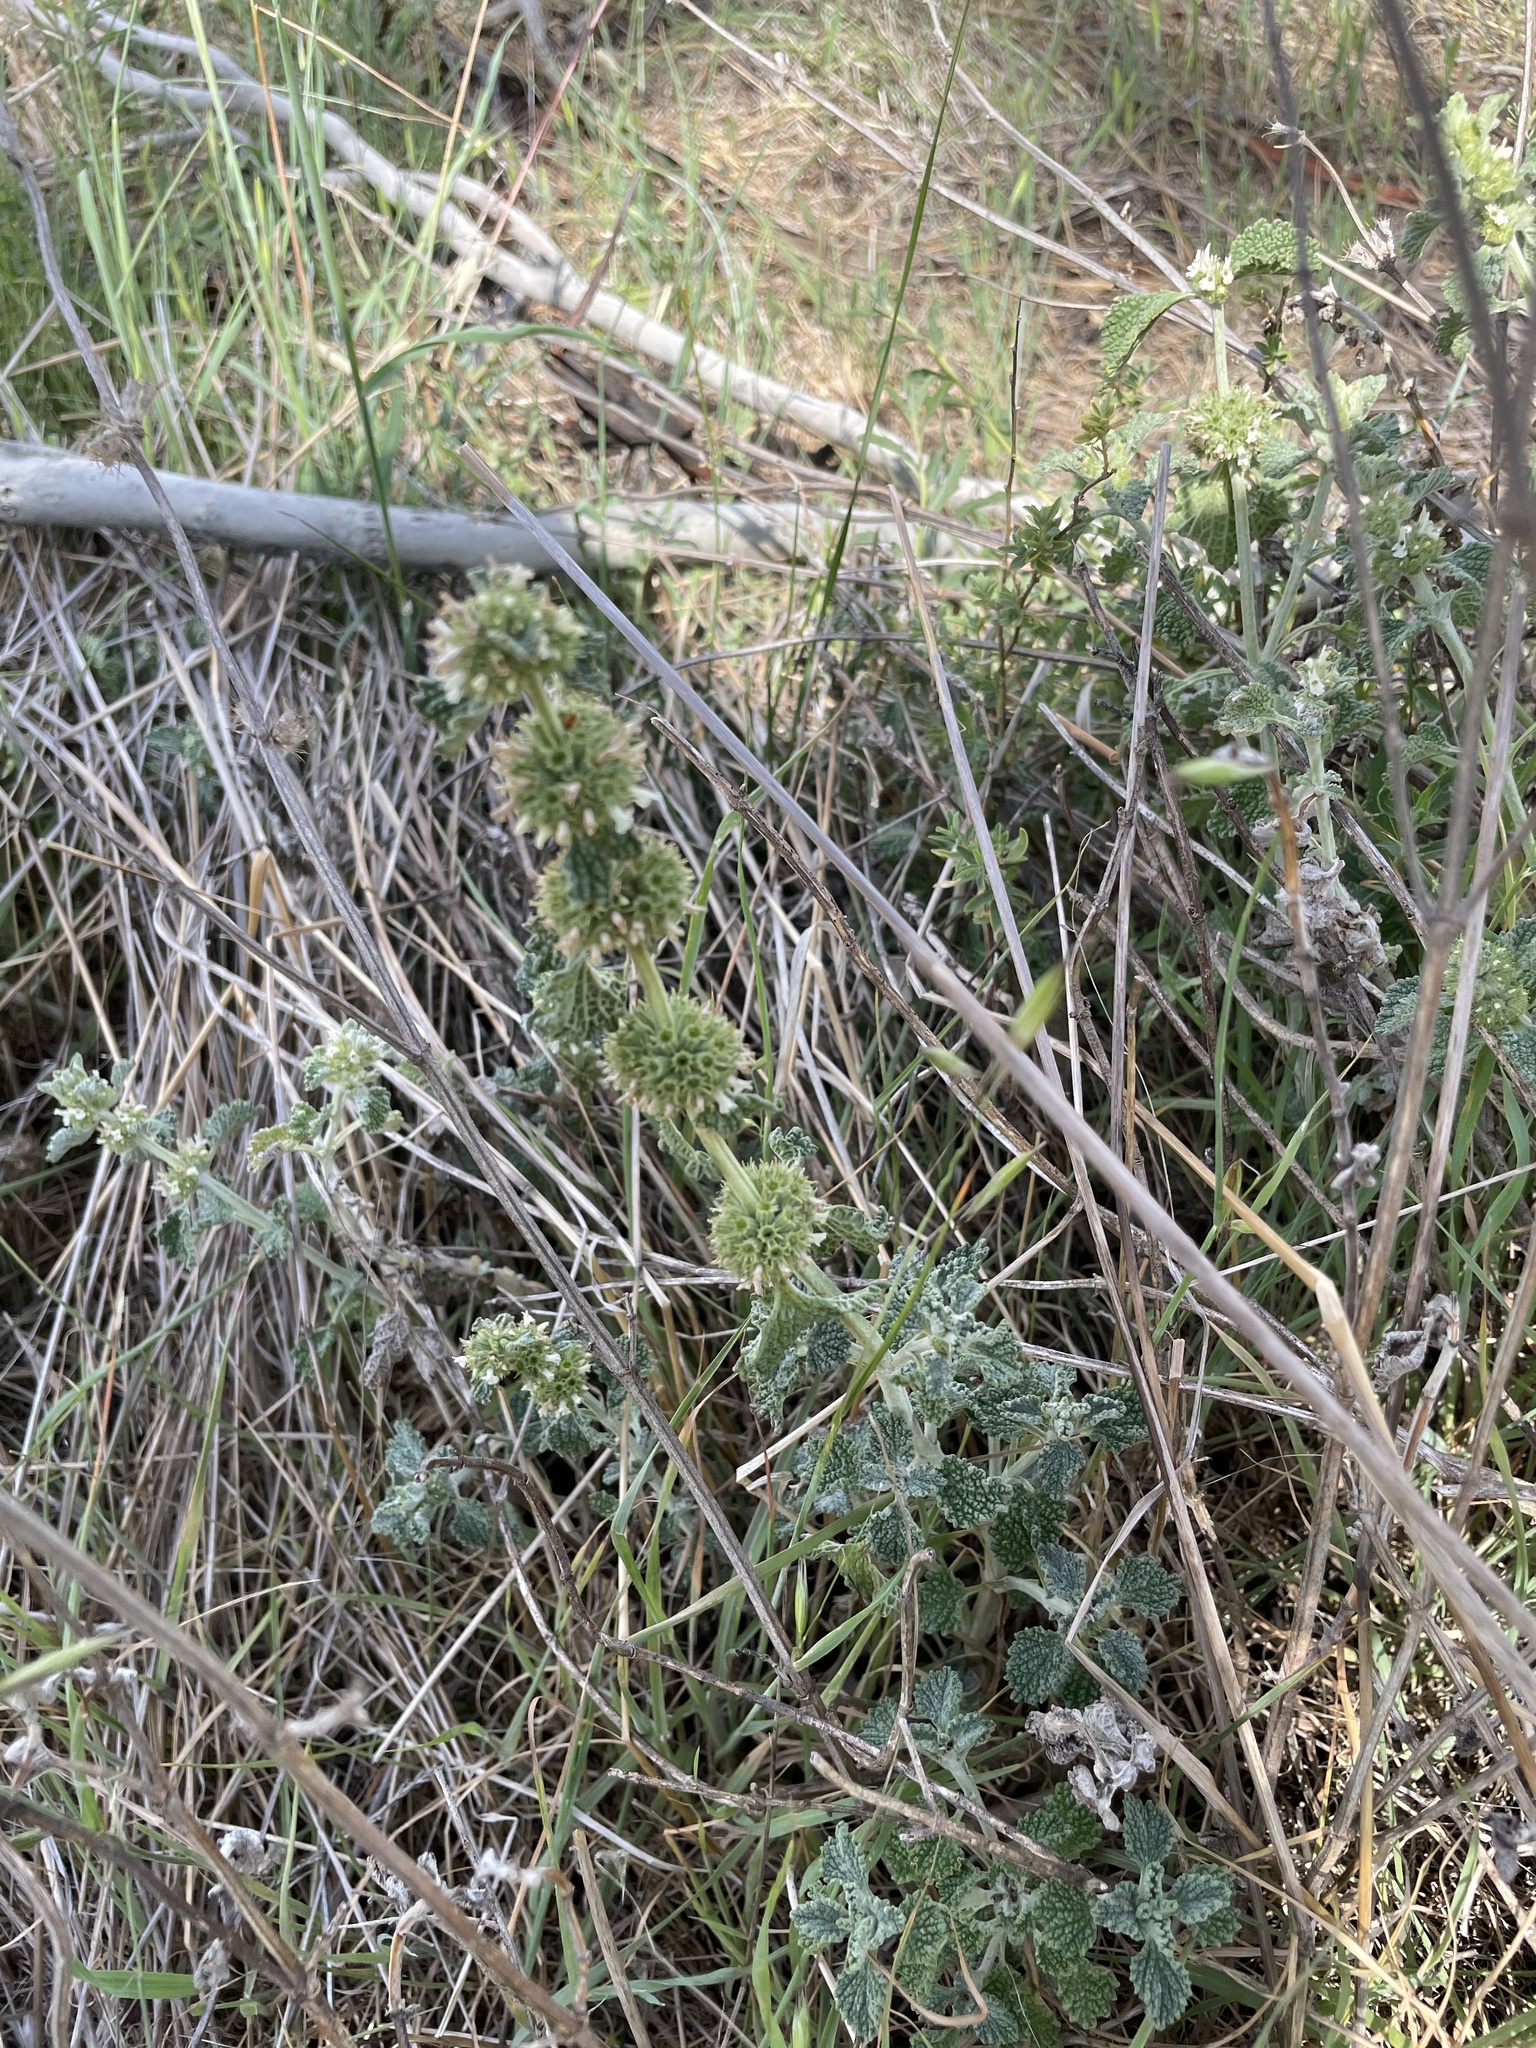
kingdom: Plantae
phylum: Tracheophyta
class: Magnoliopsida
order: Lamiales
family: Lamiaceae
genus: Marrubium
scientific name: Marrubium vulgare
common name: Horehound
